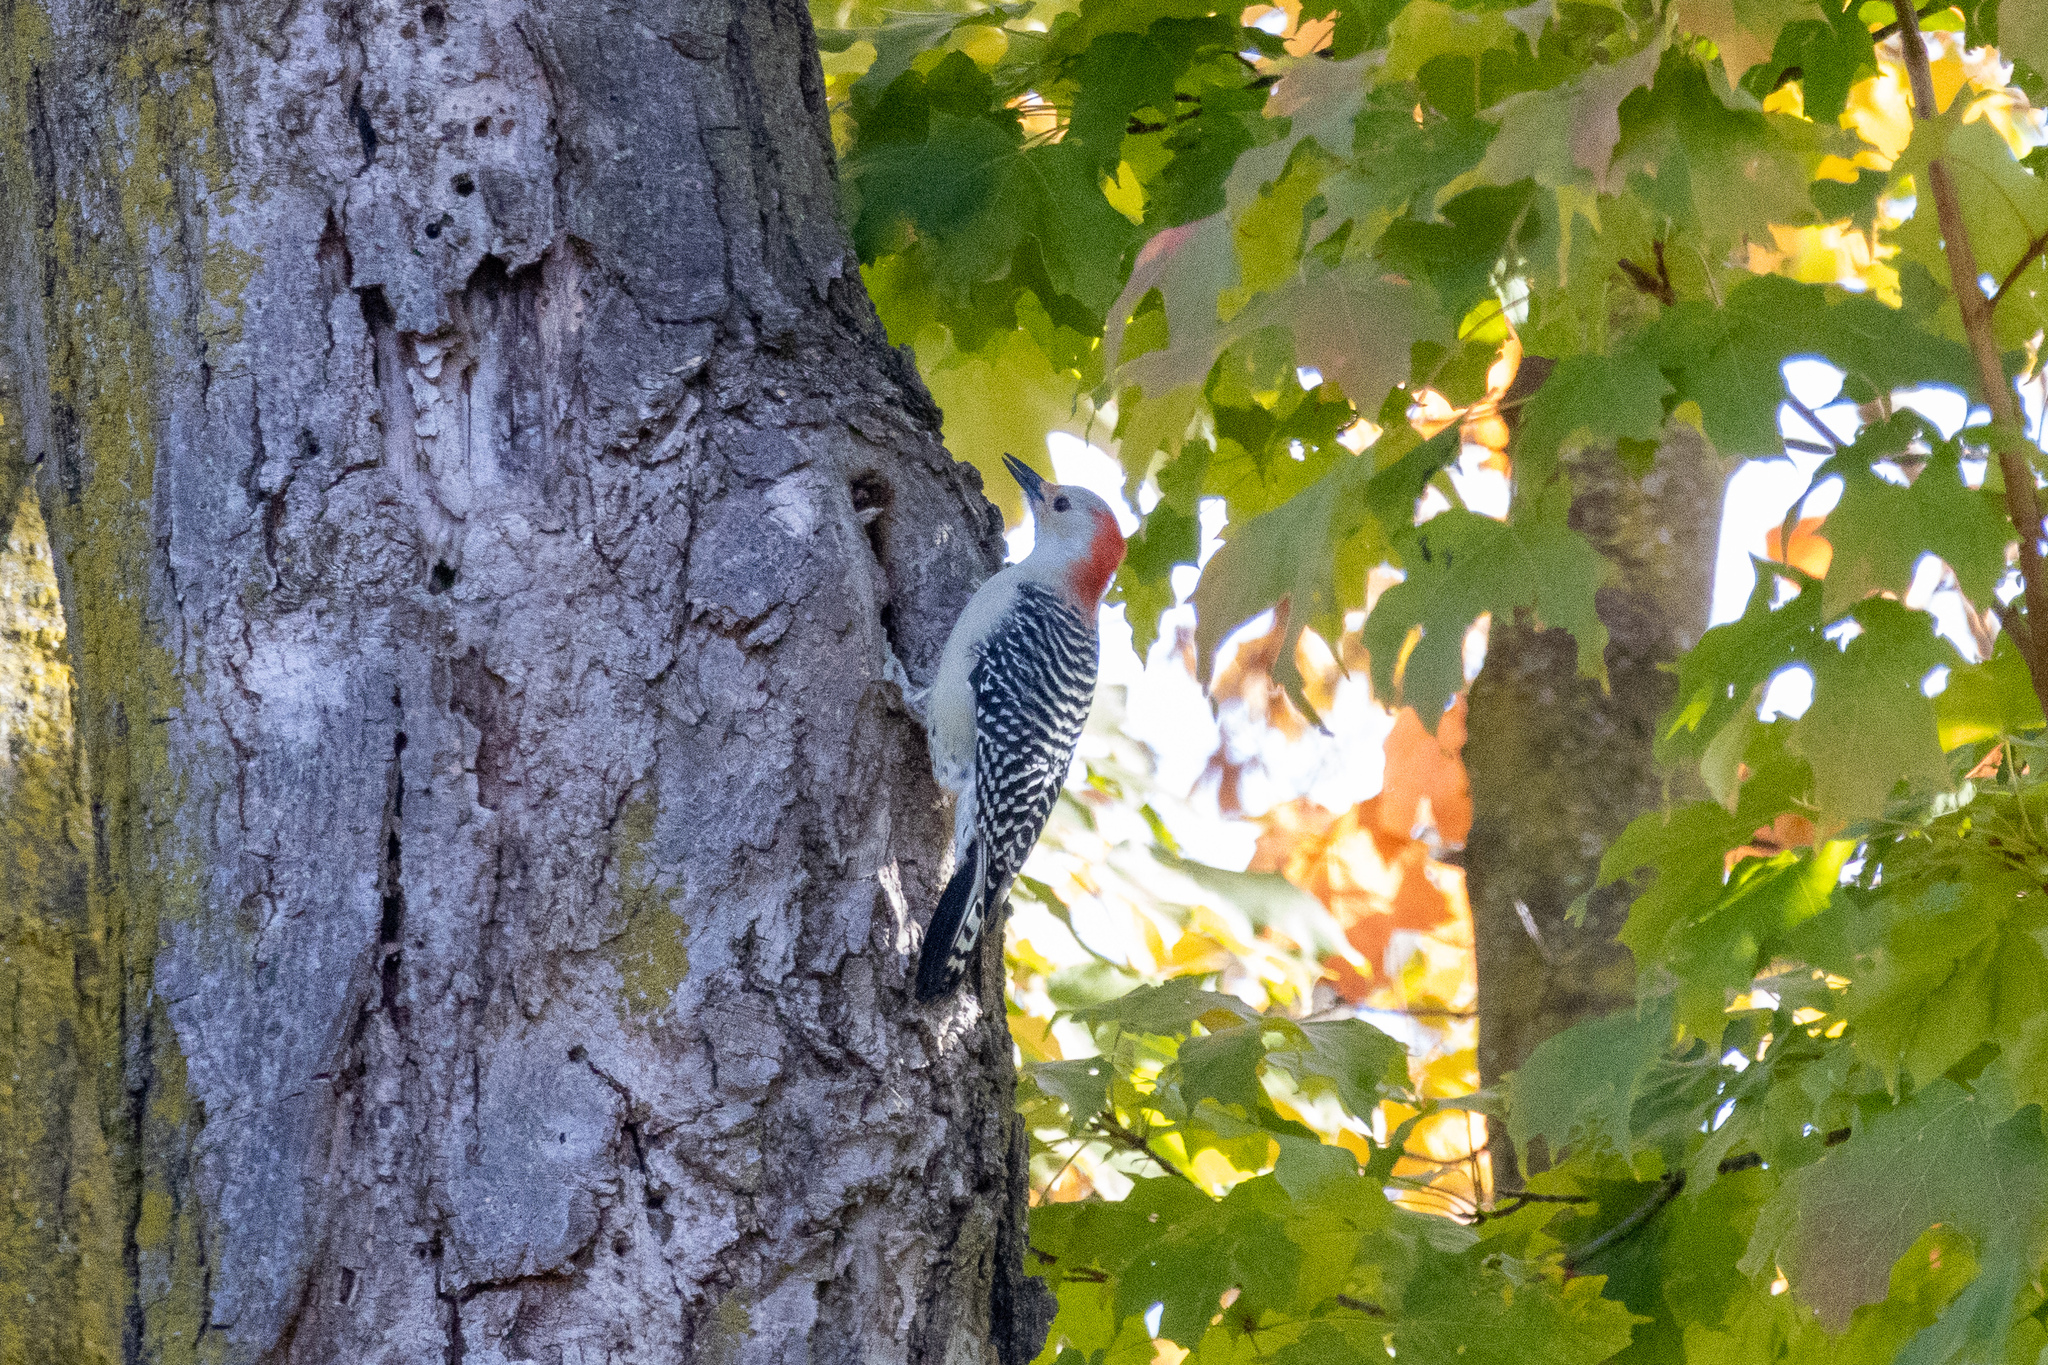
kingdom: Animalia
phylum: Chordata
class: Aves
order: Piciformes
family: Picidae
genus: Melanerpes
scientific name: Melanerpes carolinus
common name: Red-bellied woodpecker
